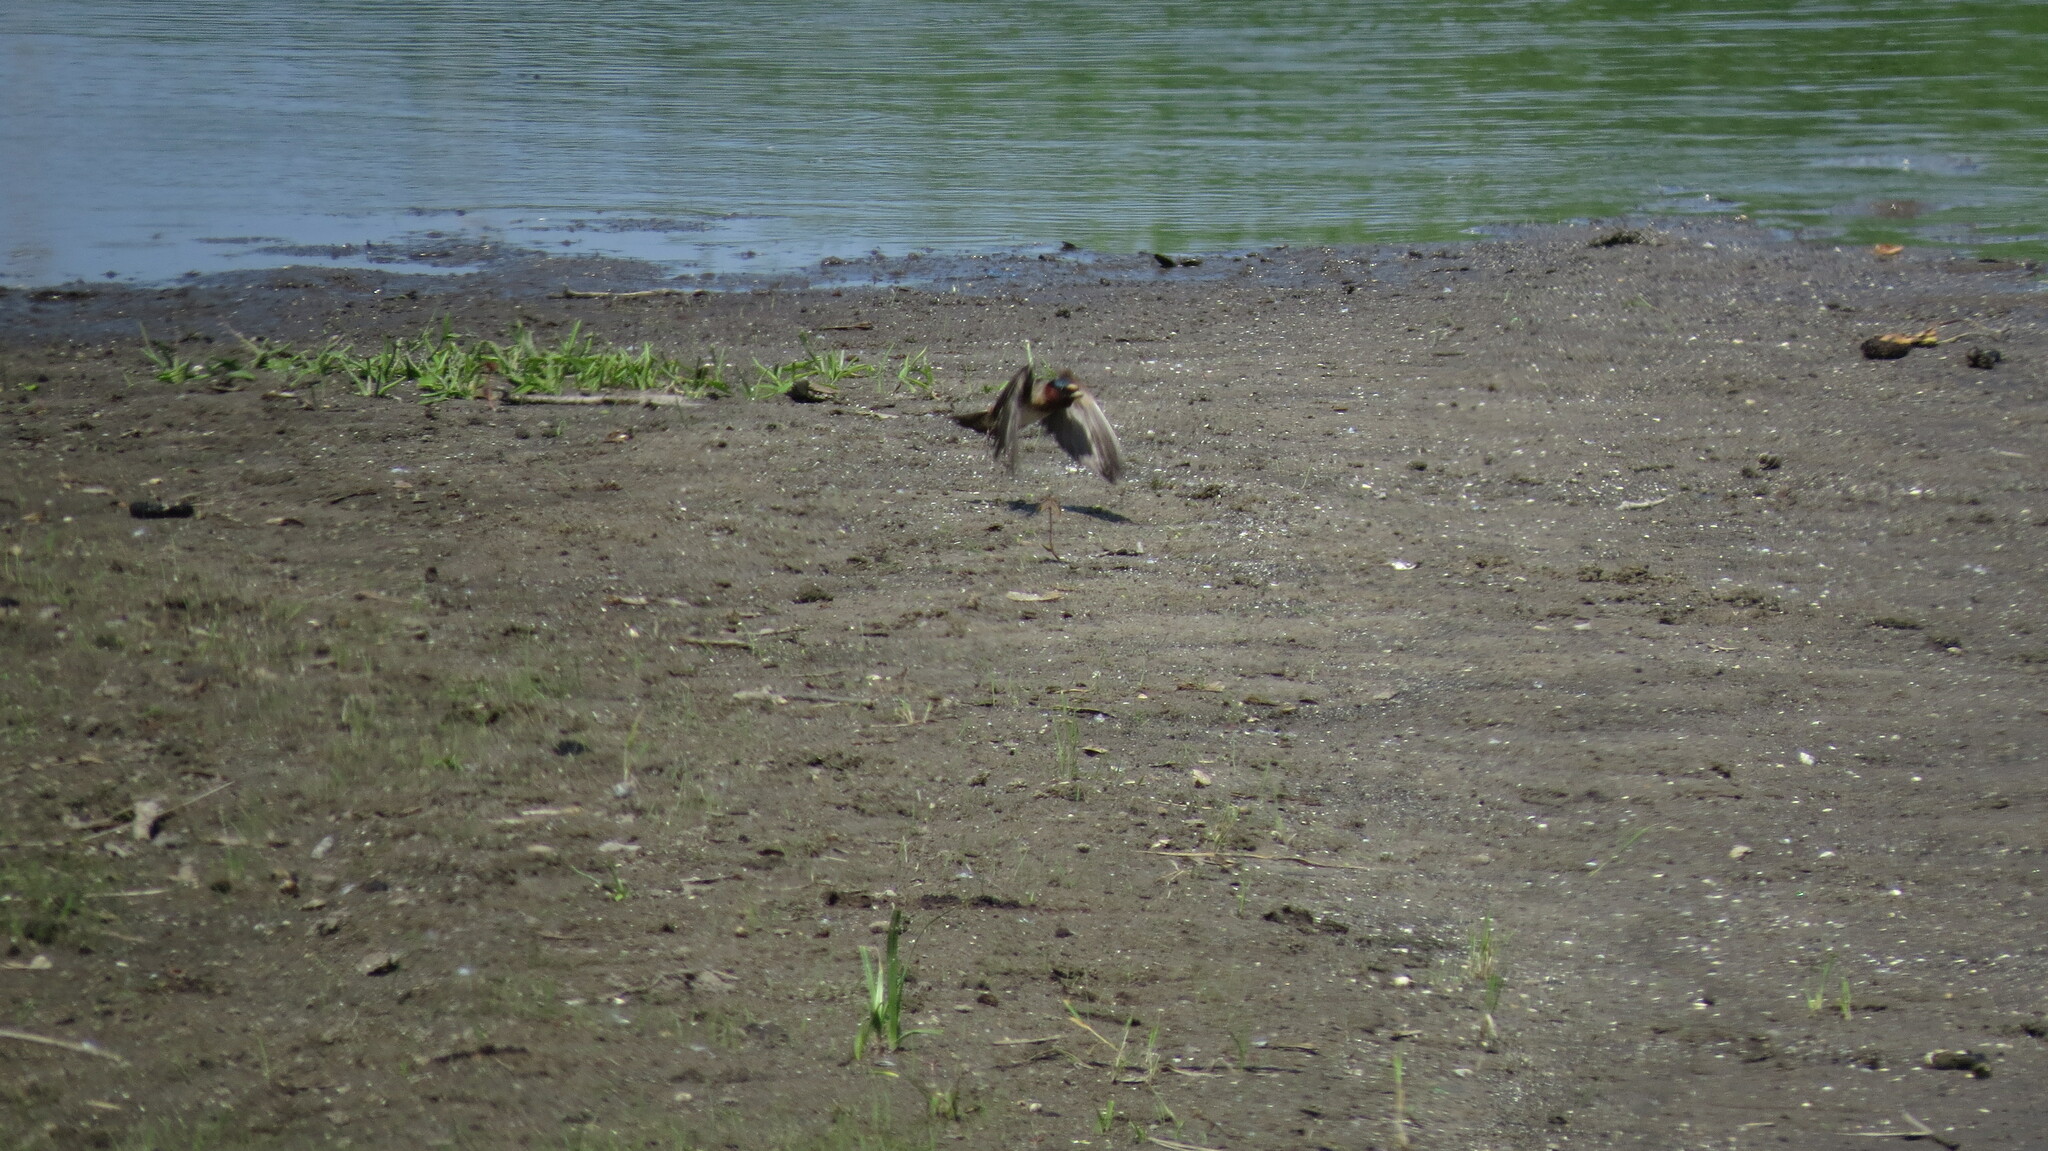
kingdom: Animalia
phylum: Chordata
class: Aves
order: Passeriformes
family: Hirundinidae
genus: Petrochelidon
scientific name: Petrochelidon pyrrhonota
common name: American cliff swallow
